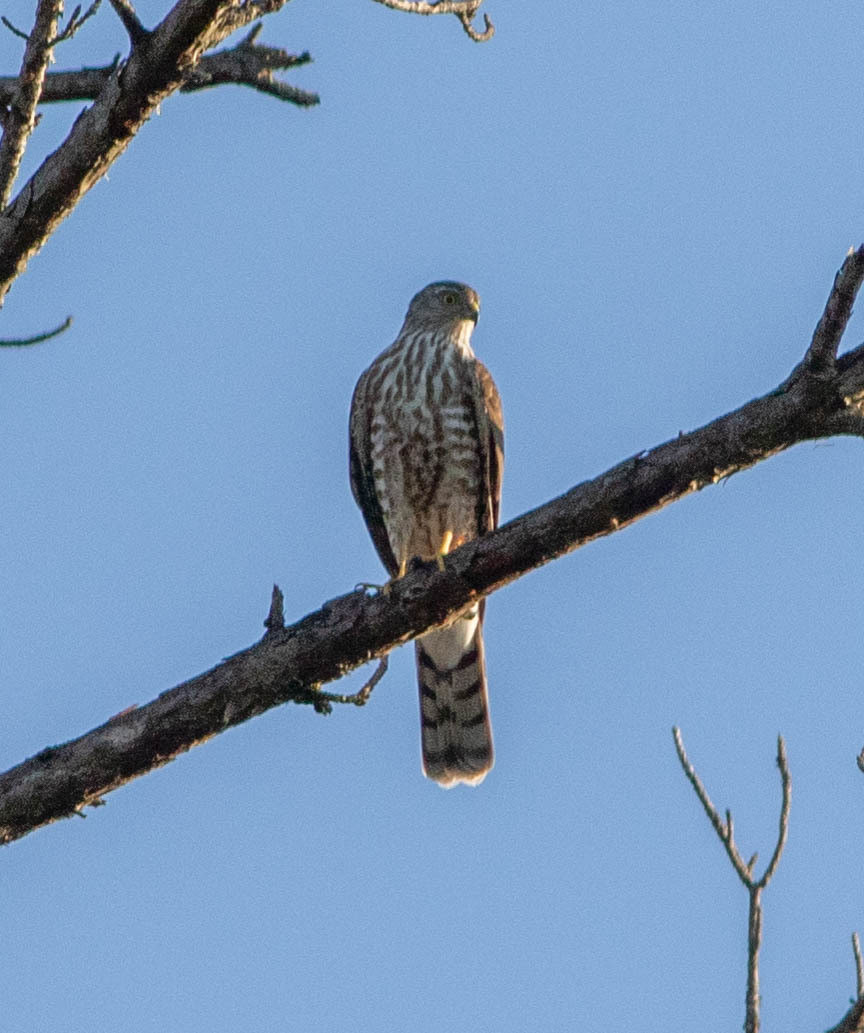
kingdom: Animalia
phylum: Chordata
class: Aves
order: Accipitriformes
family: Accipitridae
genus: Accipiter
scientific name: Accipiter striatus
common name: Sharp-shinned hawk
